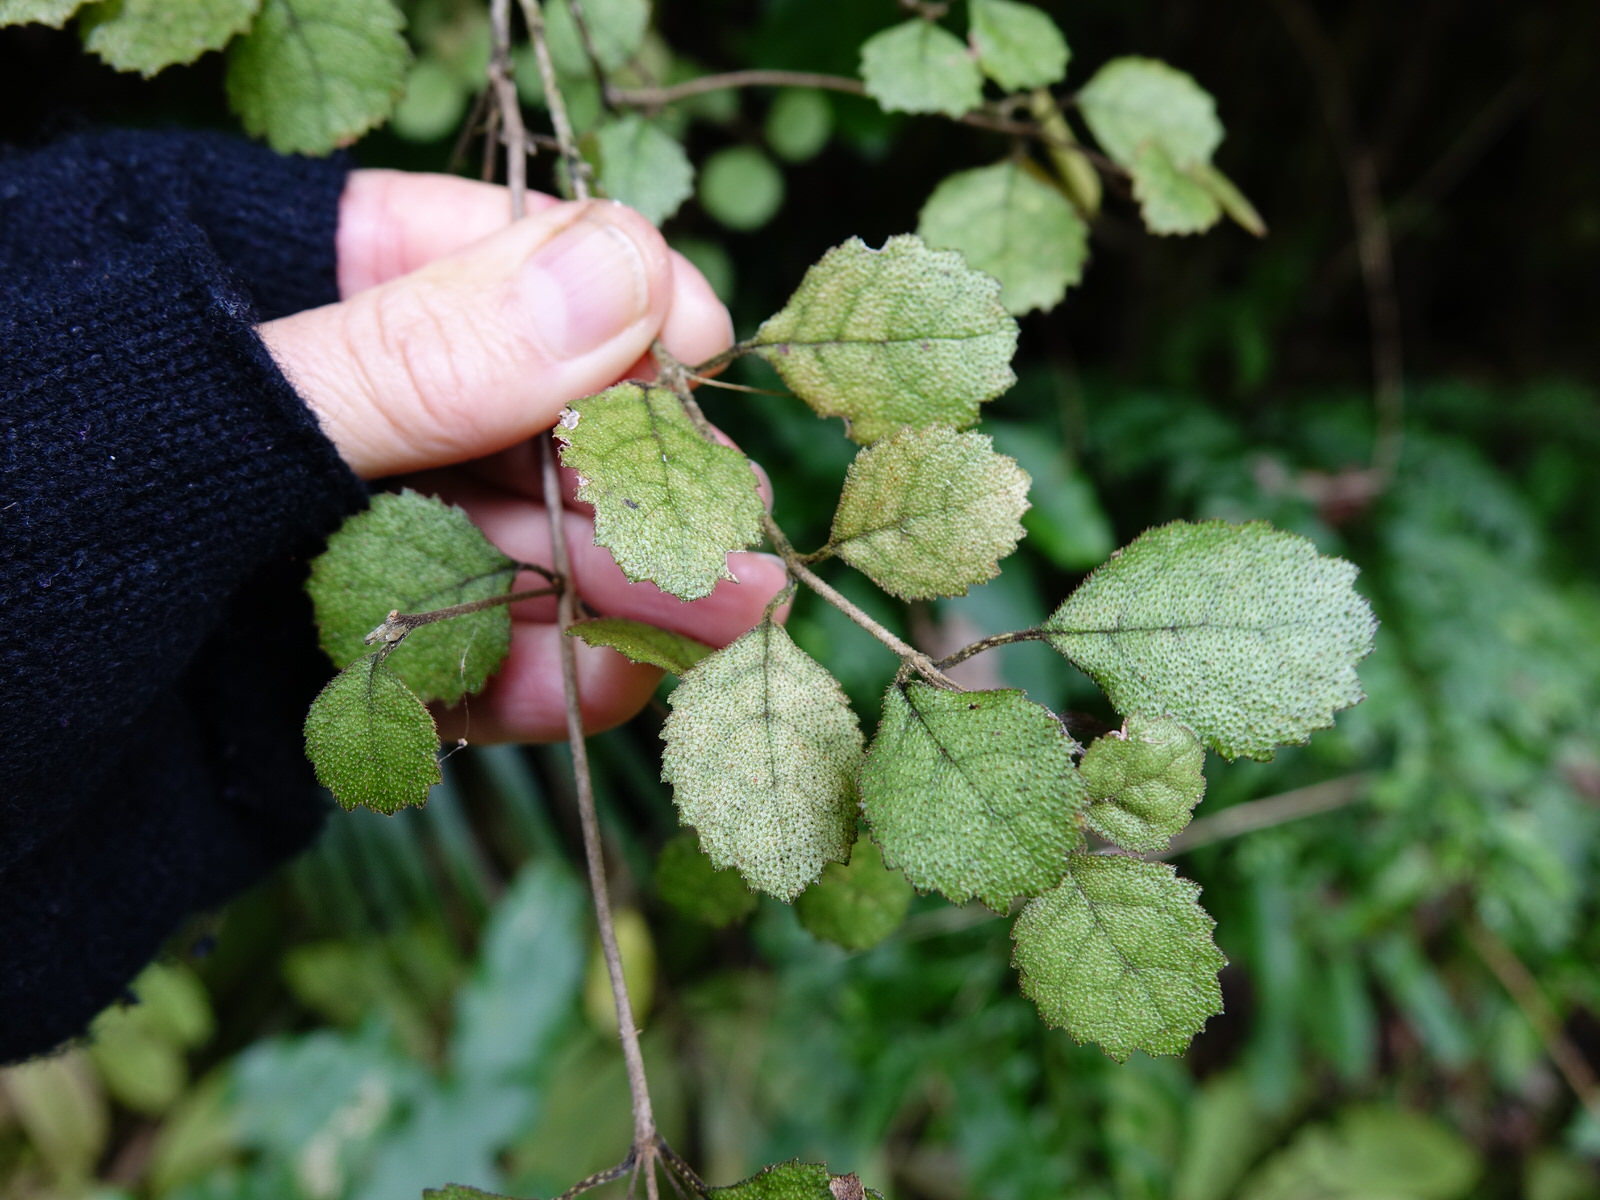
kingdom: Plantae
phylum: Tracheophyta
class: Magnoliopsida
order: Lamiales
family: Gesneriaceae
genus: Rhabdothamnus
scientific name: Rhabdothamnus solandri
